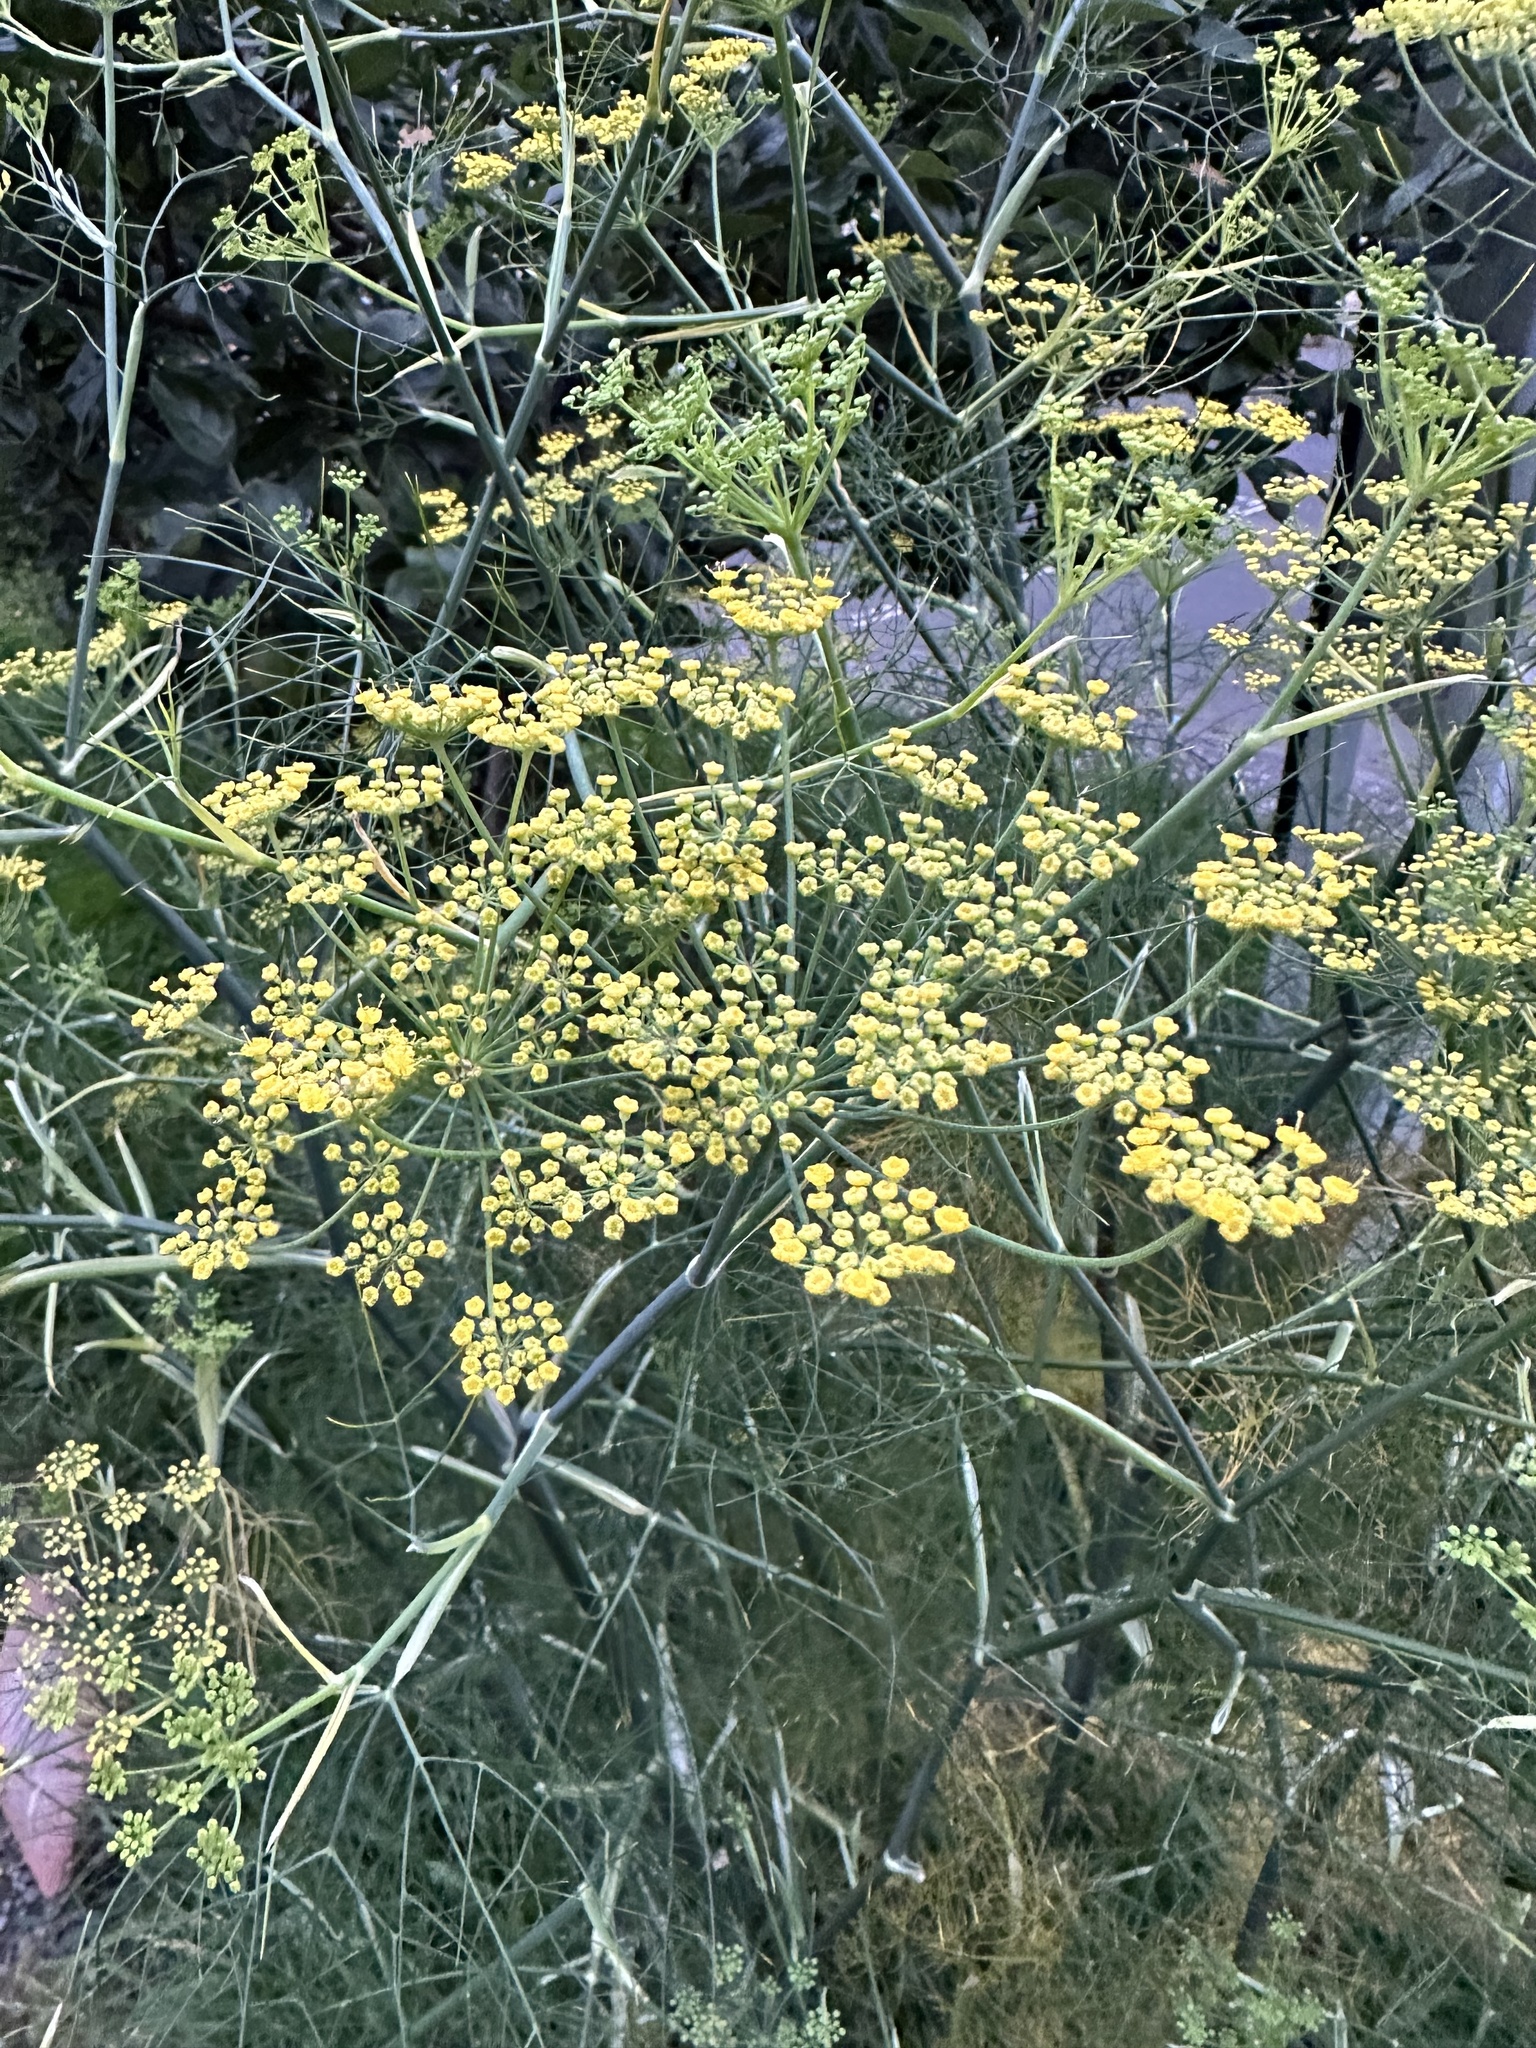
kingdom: Plantae
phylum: Tracheophyta
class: Magnoliopsida
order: Apiales
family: Apiaceae
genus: Foeniculum
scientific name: Foeniculum vulgare
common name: Fennel
